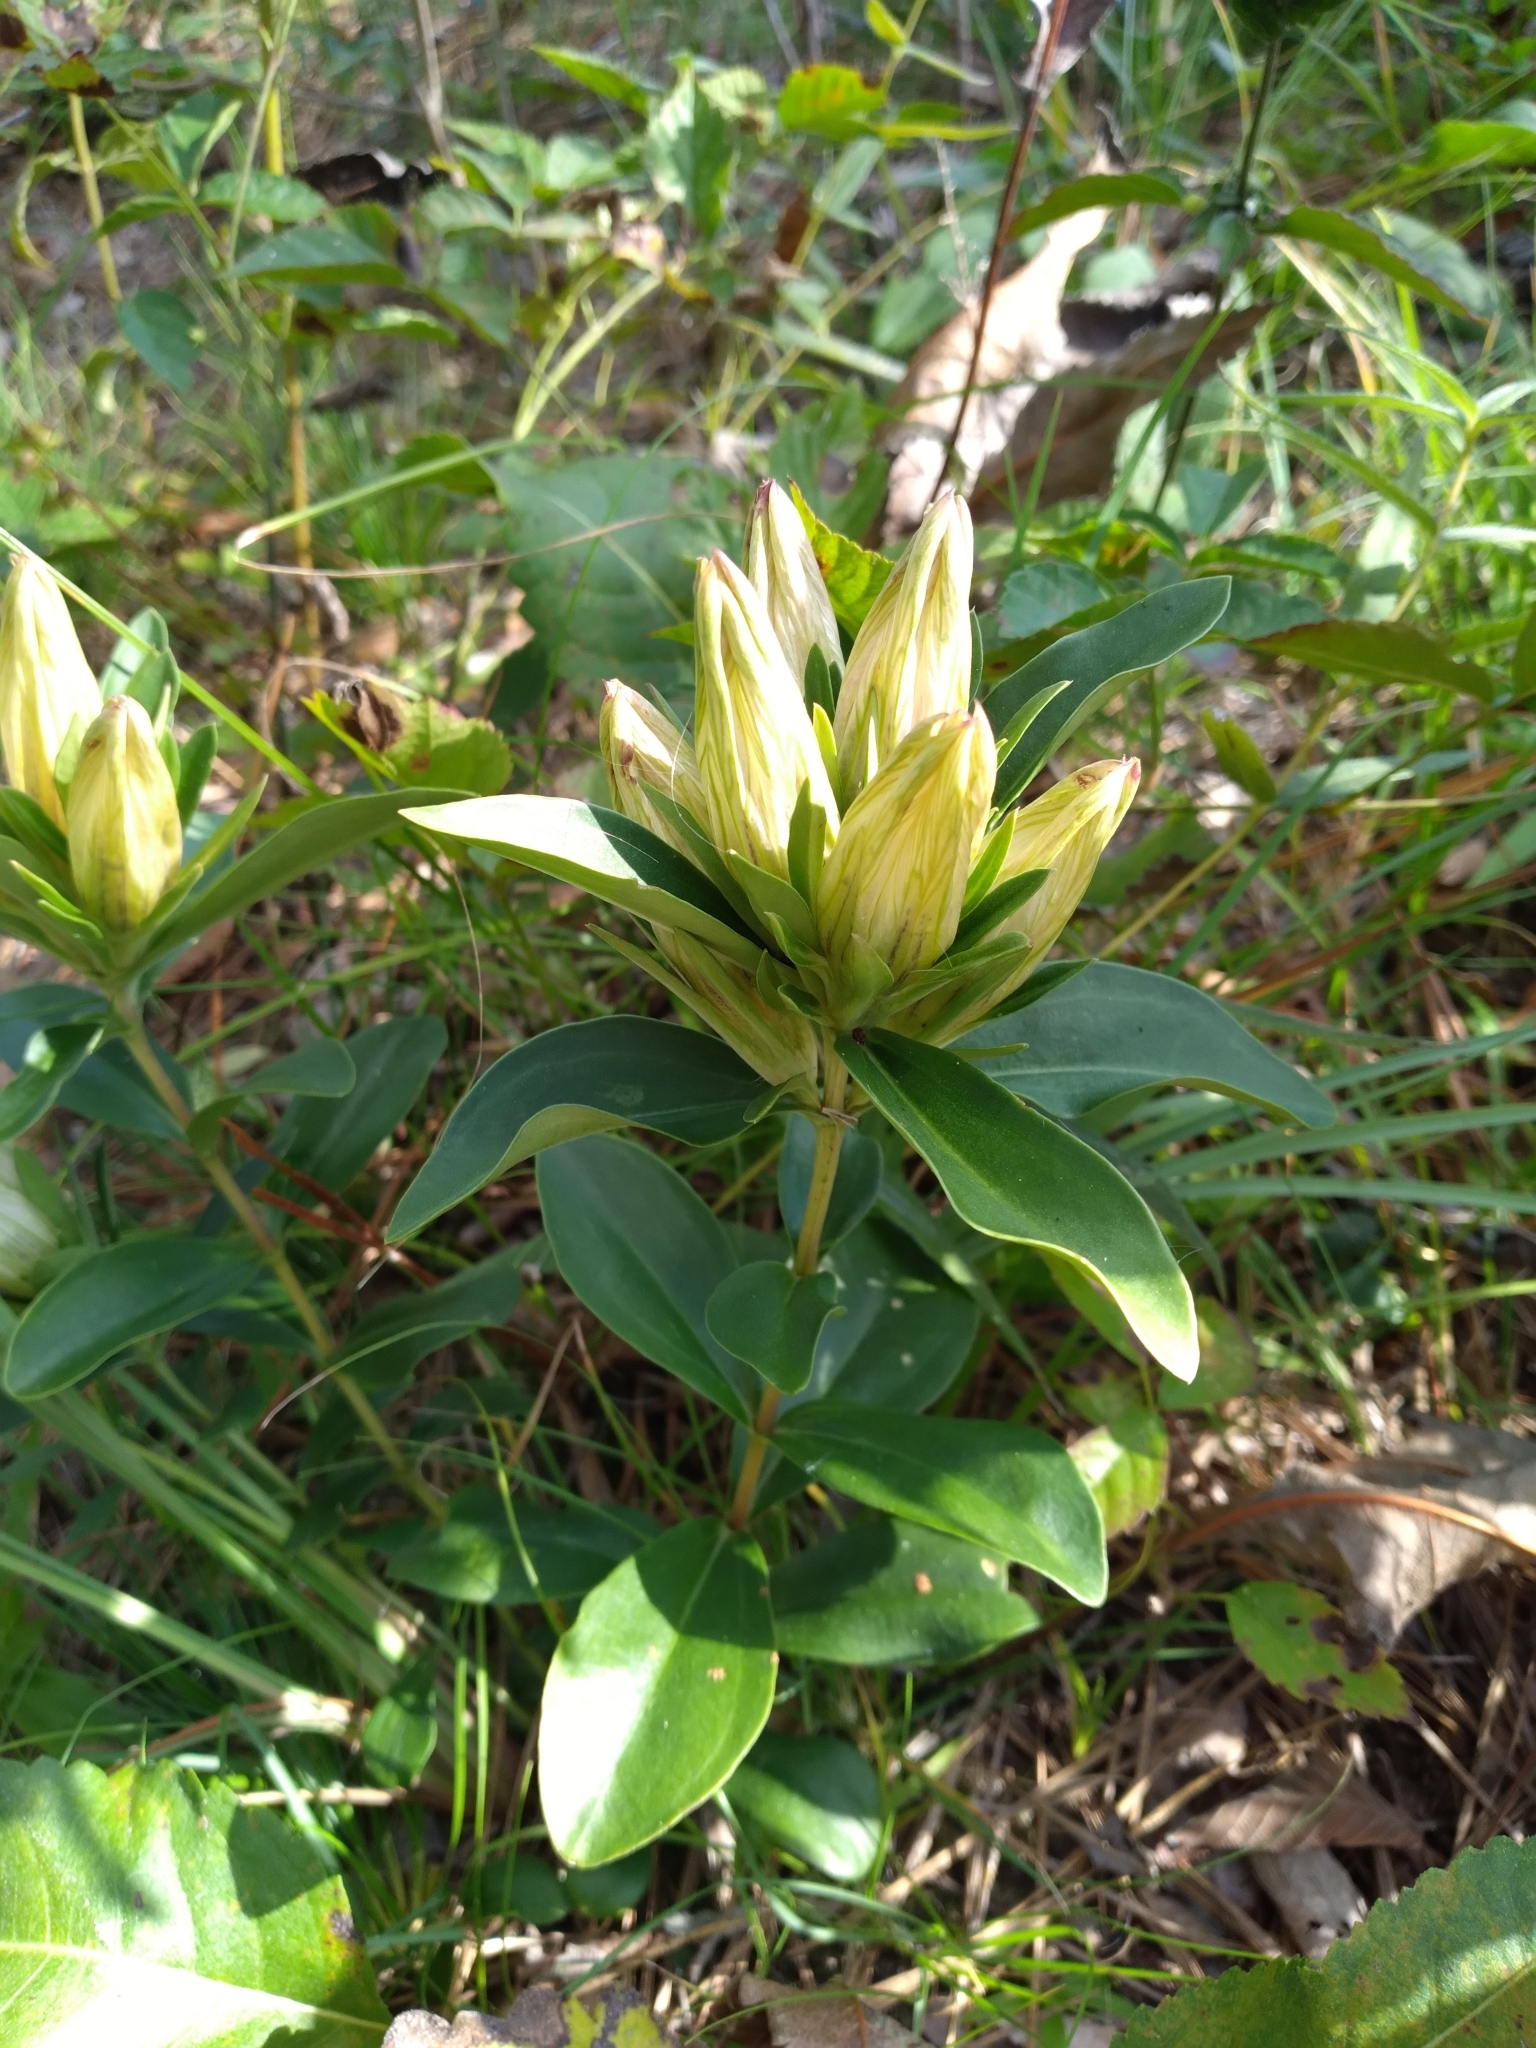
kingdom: Plantae
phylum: Tracheophyta
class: Magnoliopsida
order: Gentianales
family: Gentianaceae
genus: Gentiana
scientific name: Gentiana villosa
